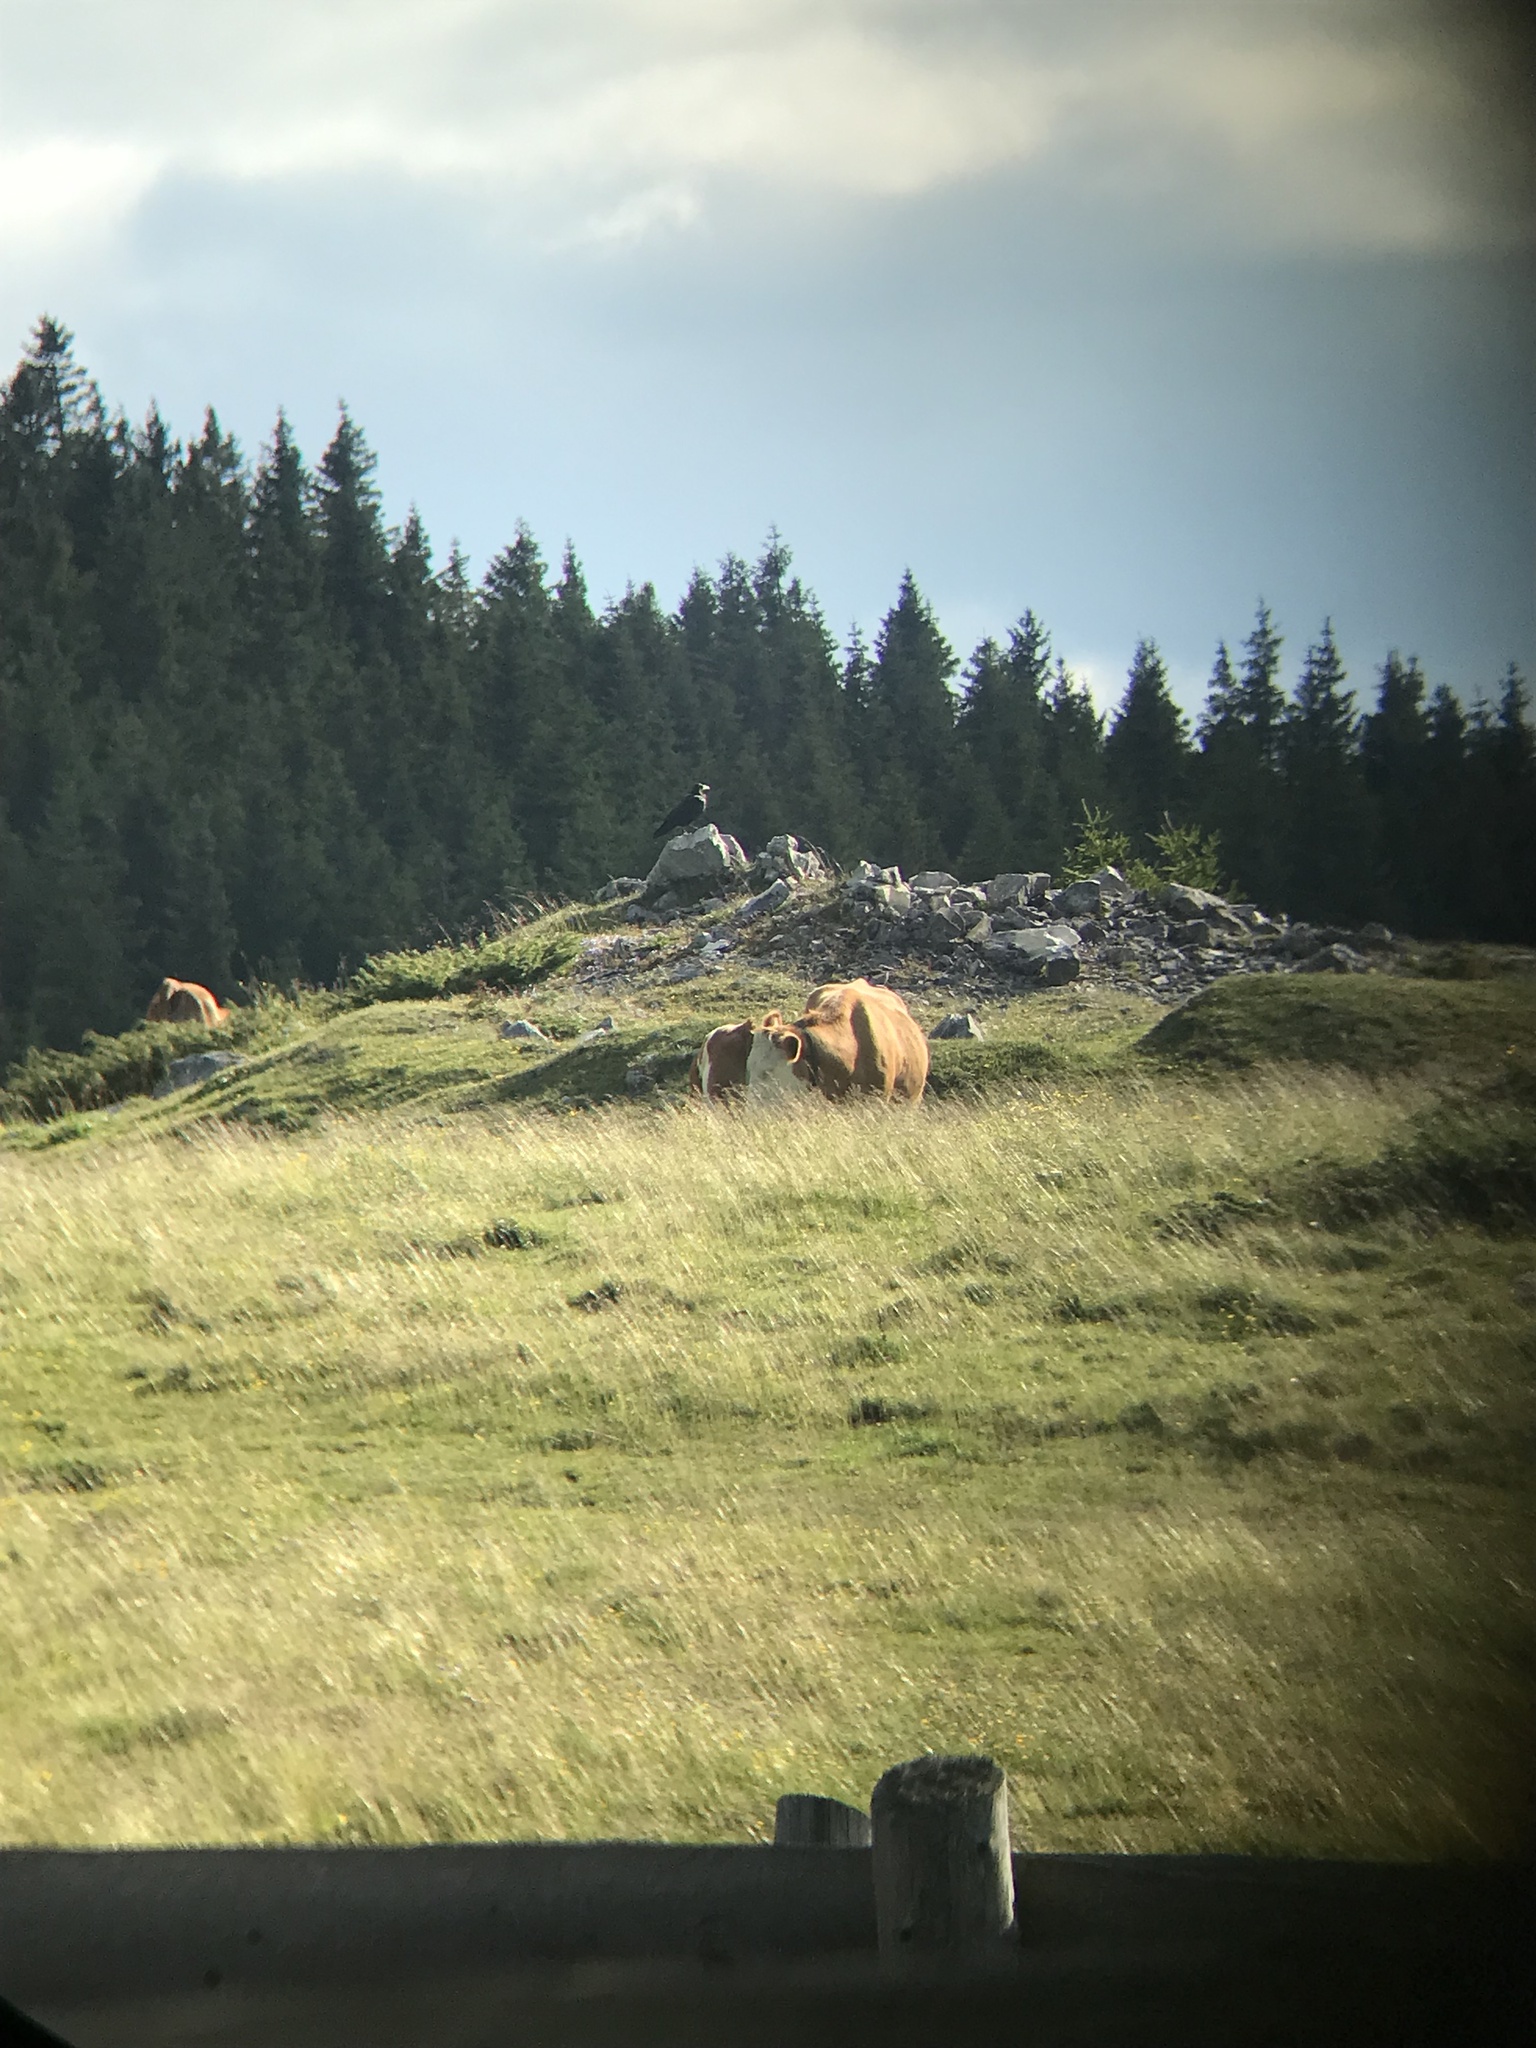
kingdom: Animalia
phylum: Chordata
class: Aves
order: Passeriformes
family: Corvidae
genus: Corvus
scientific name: Corvus corax
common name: Common raven
